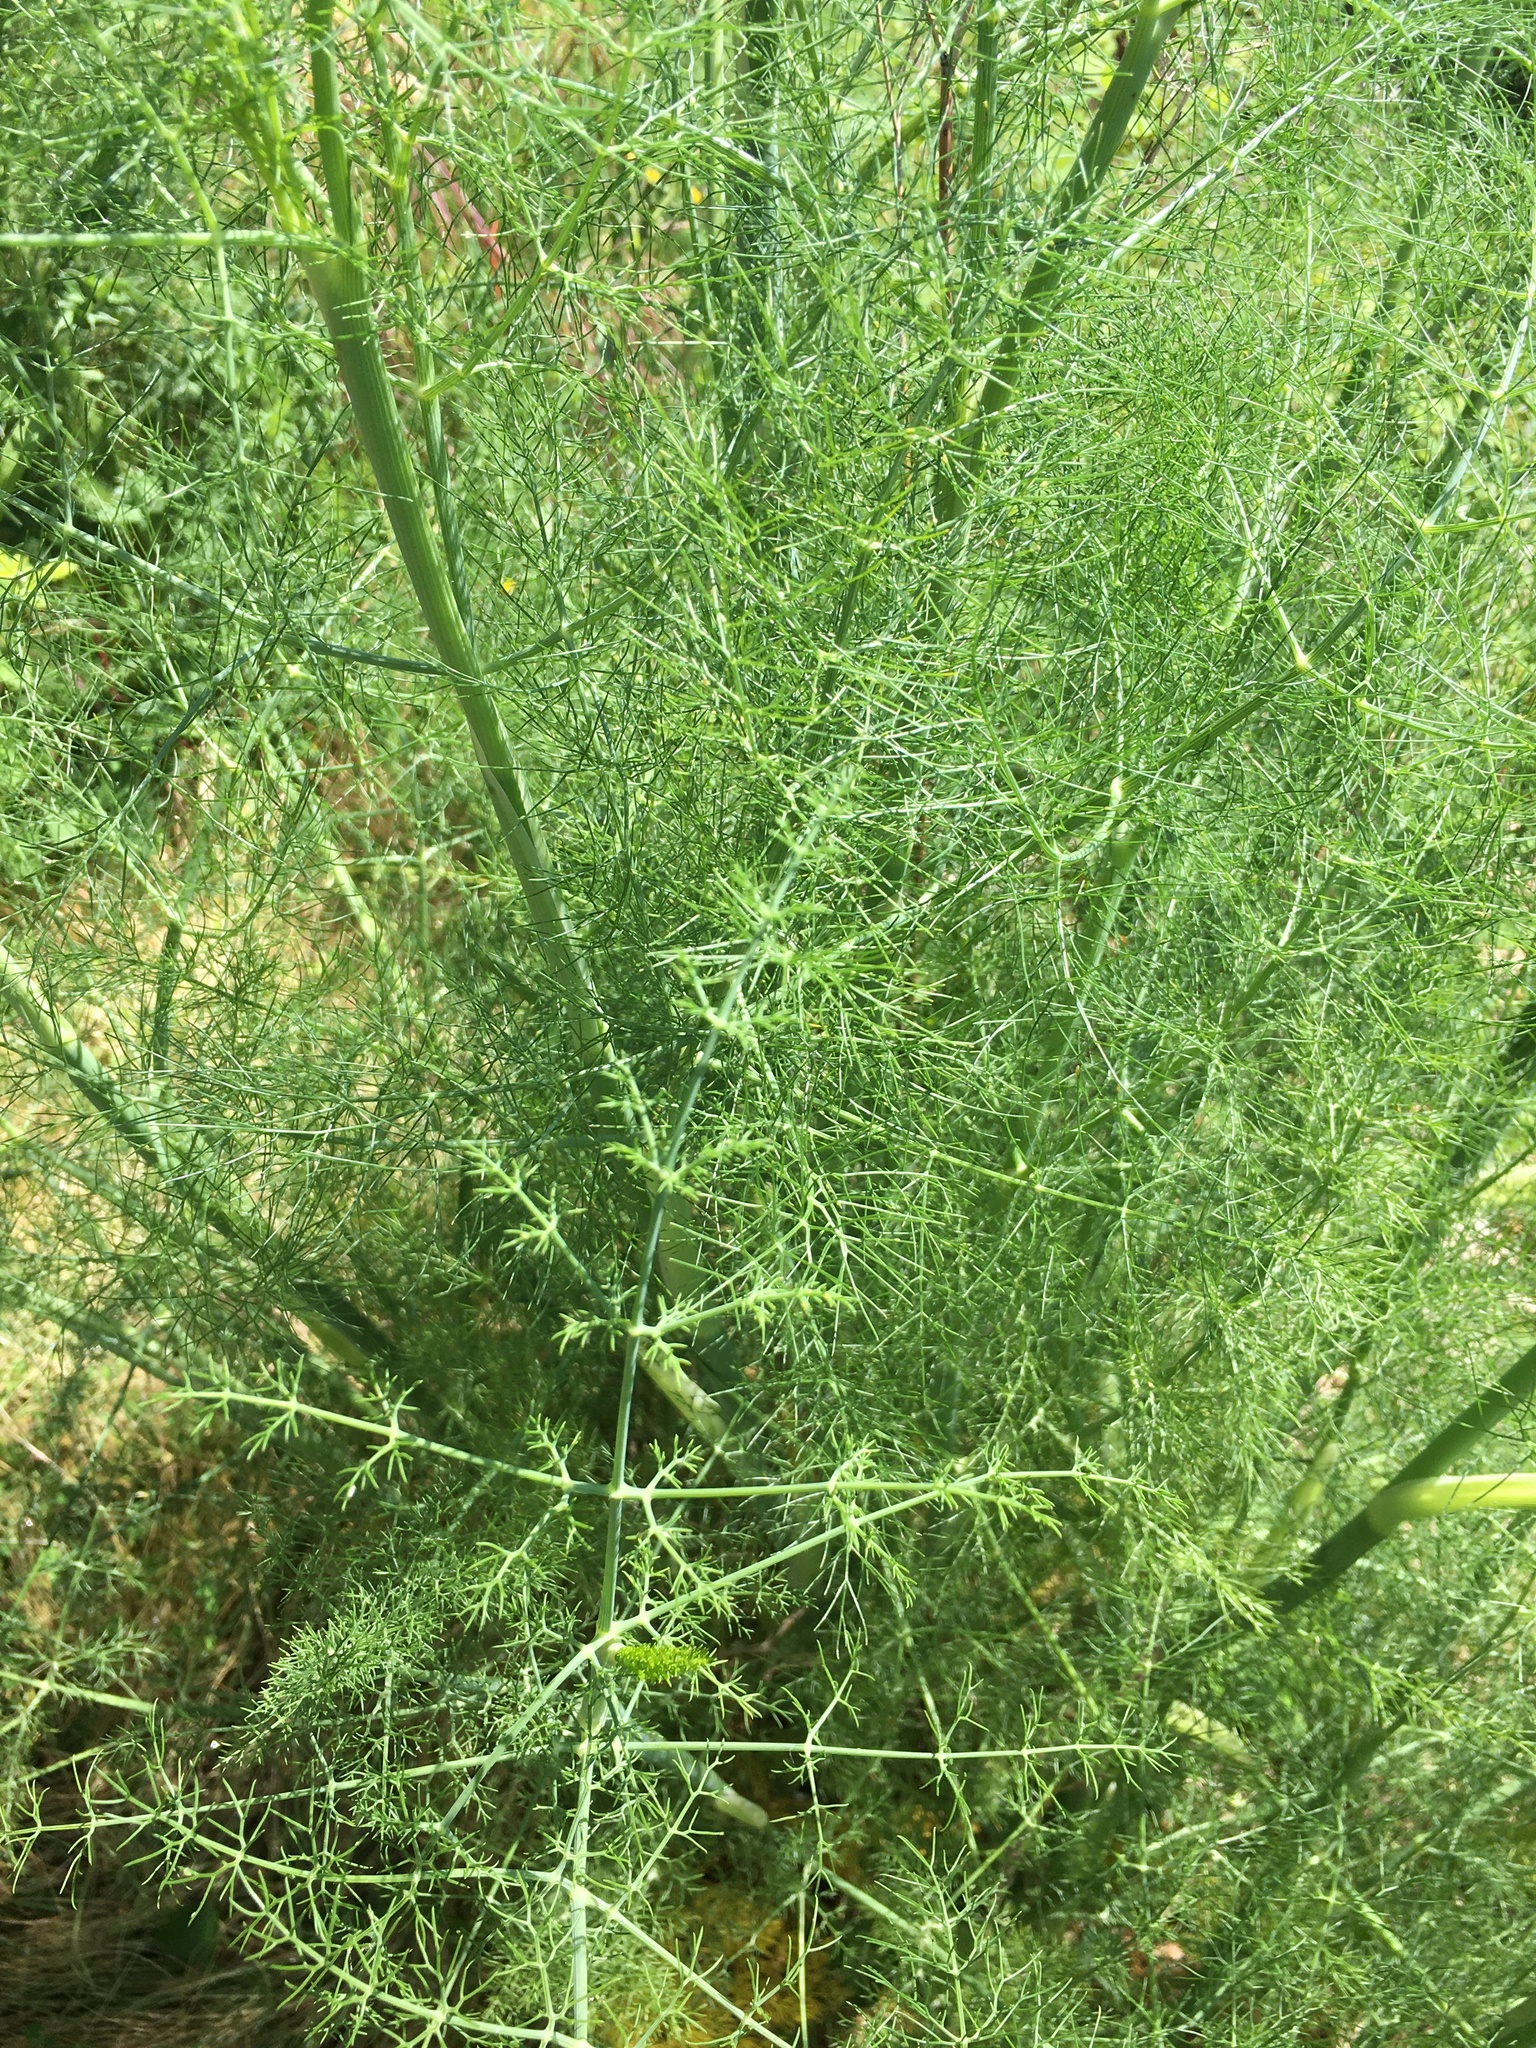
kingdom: Plantae
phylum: Tracheophyta
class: Magnoliopsida
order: Apiales
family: Apiaceae
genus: Foeniculum
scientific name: Foeniculum vulgare
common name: Fennel
